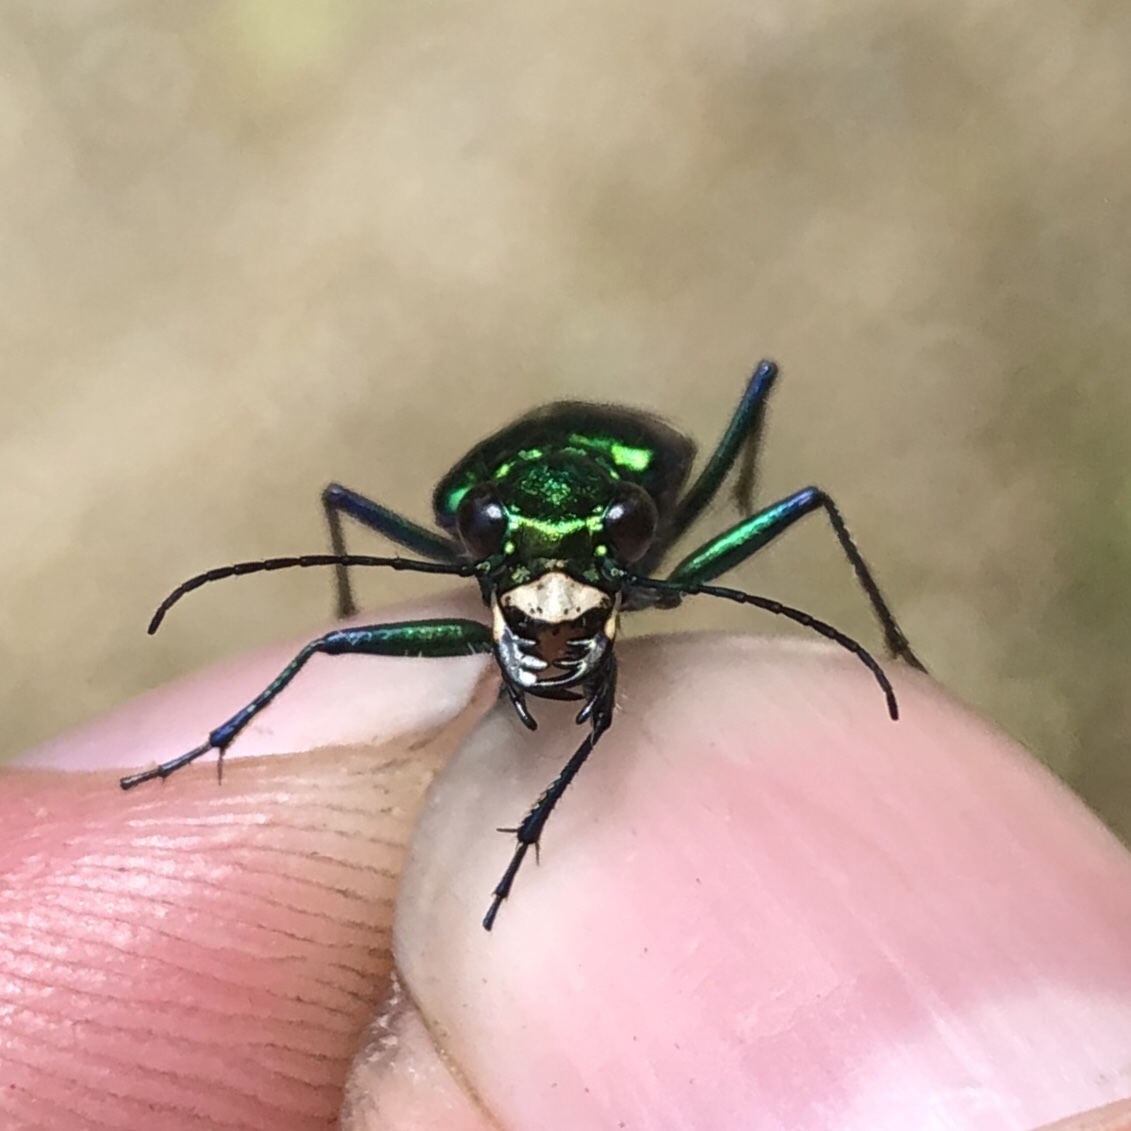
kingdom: Animalia
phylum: Arthropoda
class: Insecta
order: Coleoptera
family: Carabidae
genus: Cicindela
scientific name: Cicindela sexguttata
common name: Six-spotted tiger beetle
